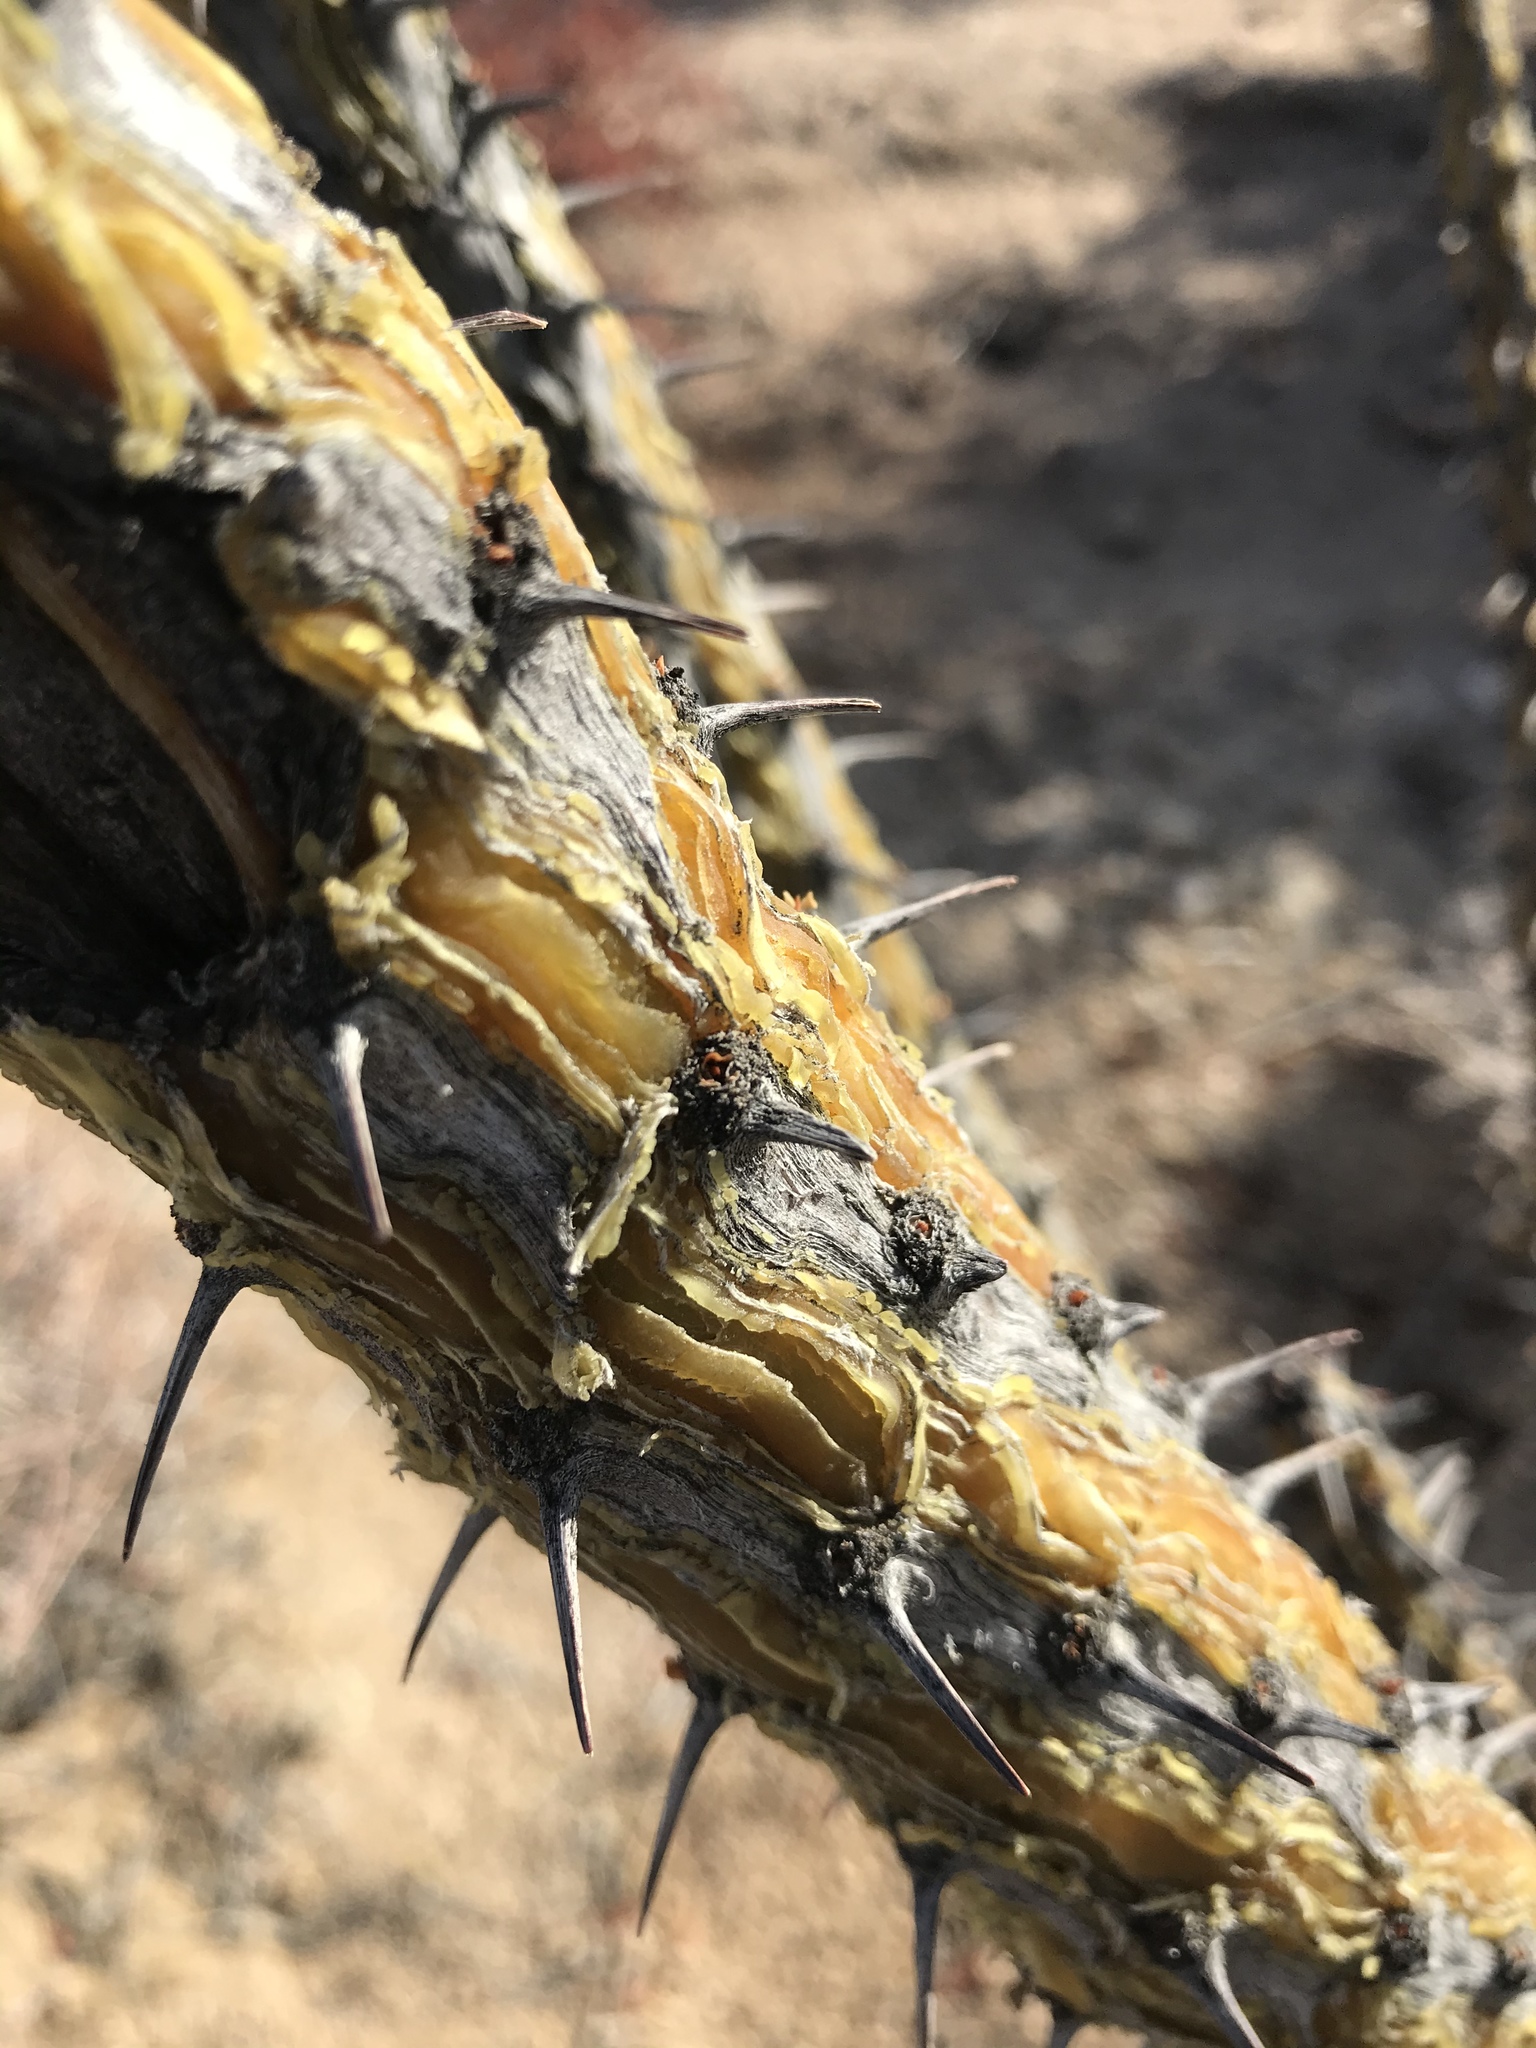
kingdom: Plantae
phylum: Tracheophyta
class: Magnoliopsida
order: Ericales
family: Fouquieriaceae
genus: Fouquieria
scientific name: Fouquieria splendens
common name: Vine-cactus
